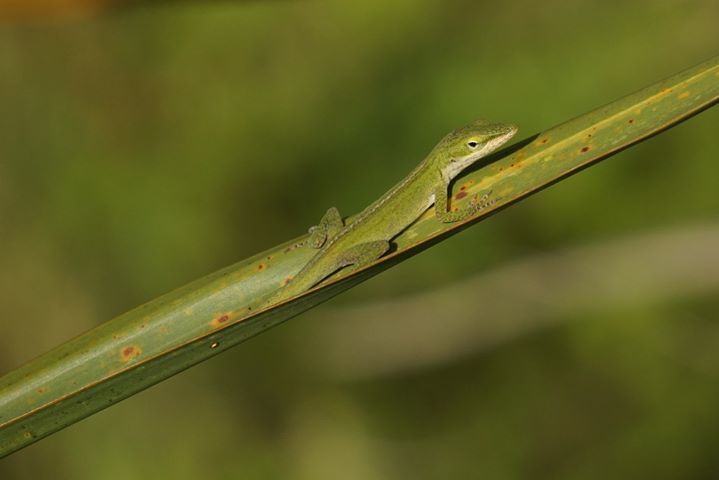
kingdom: Animalia
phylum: Chordata
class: Squamata
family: Dactyloidae
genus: Anolis
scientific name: Anolis carolinensis
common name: Green anole
